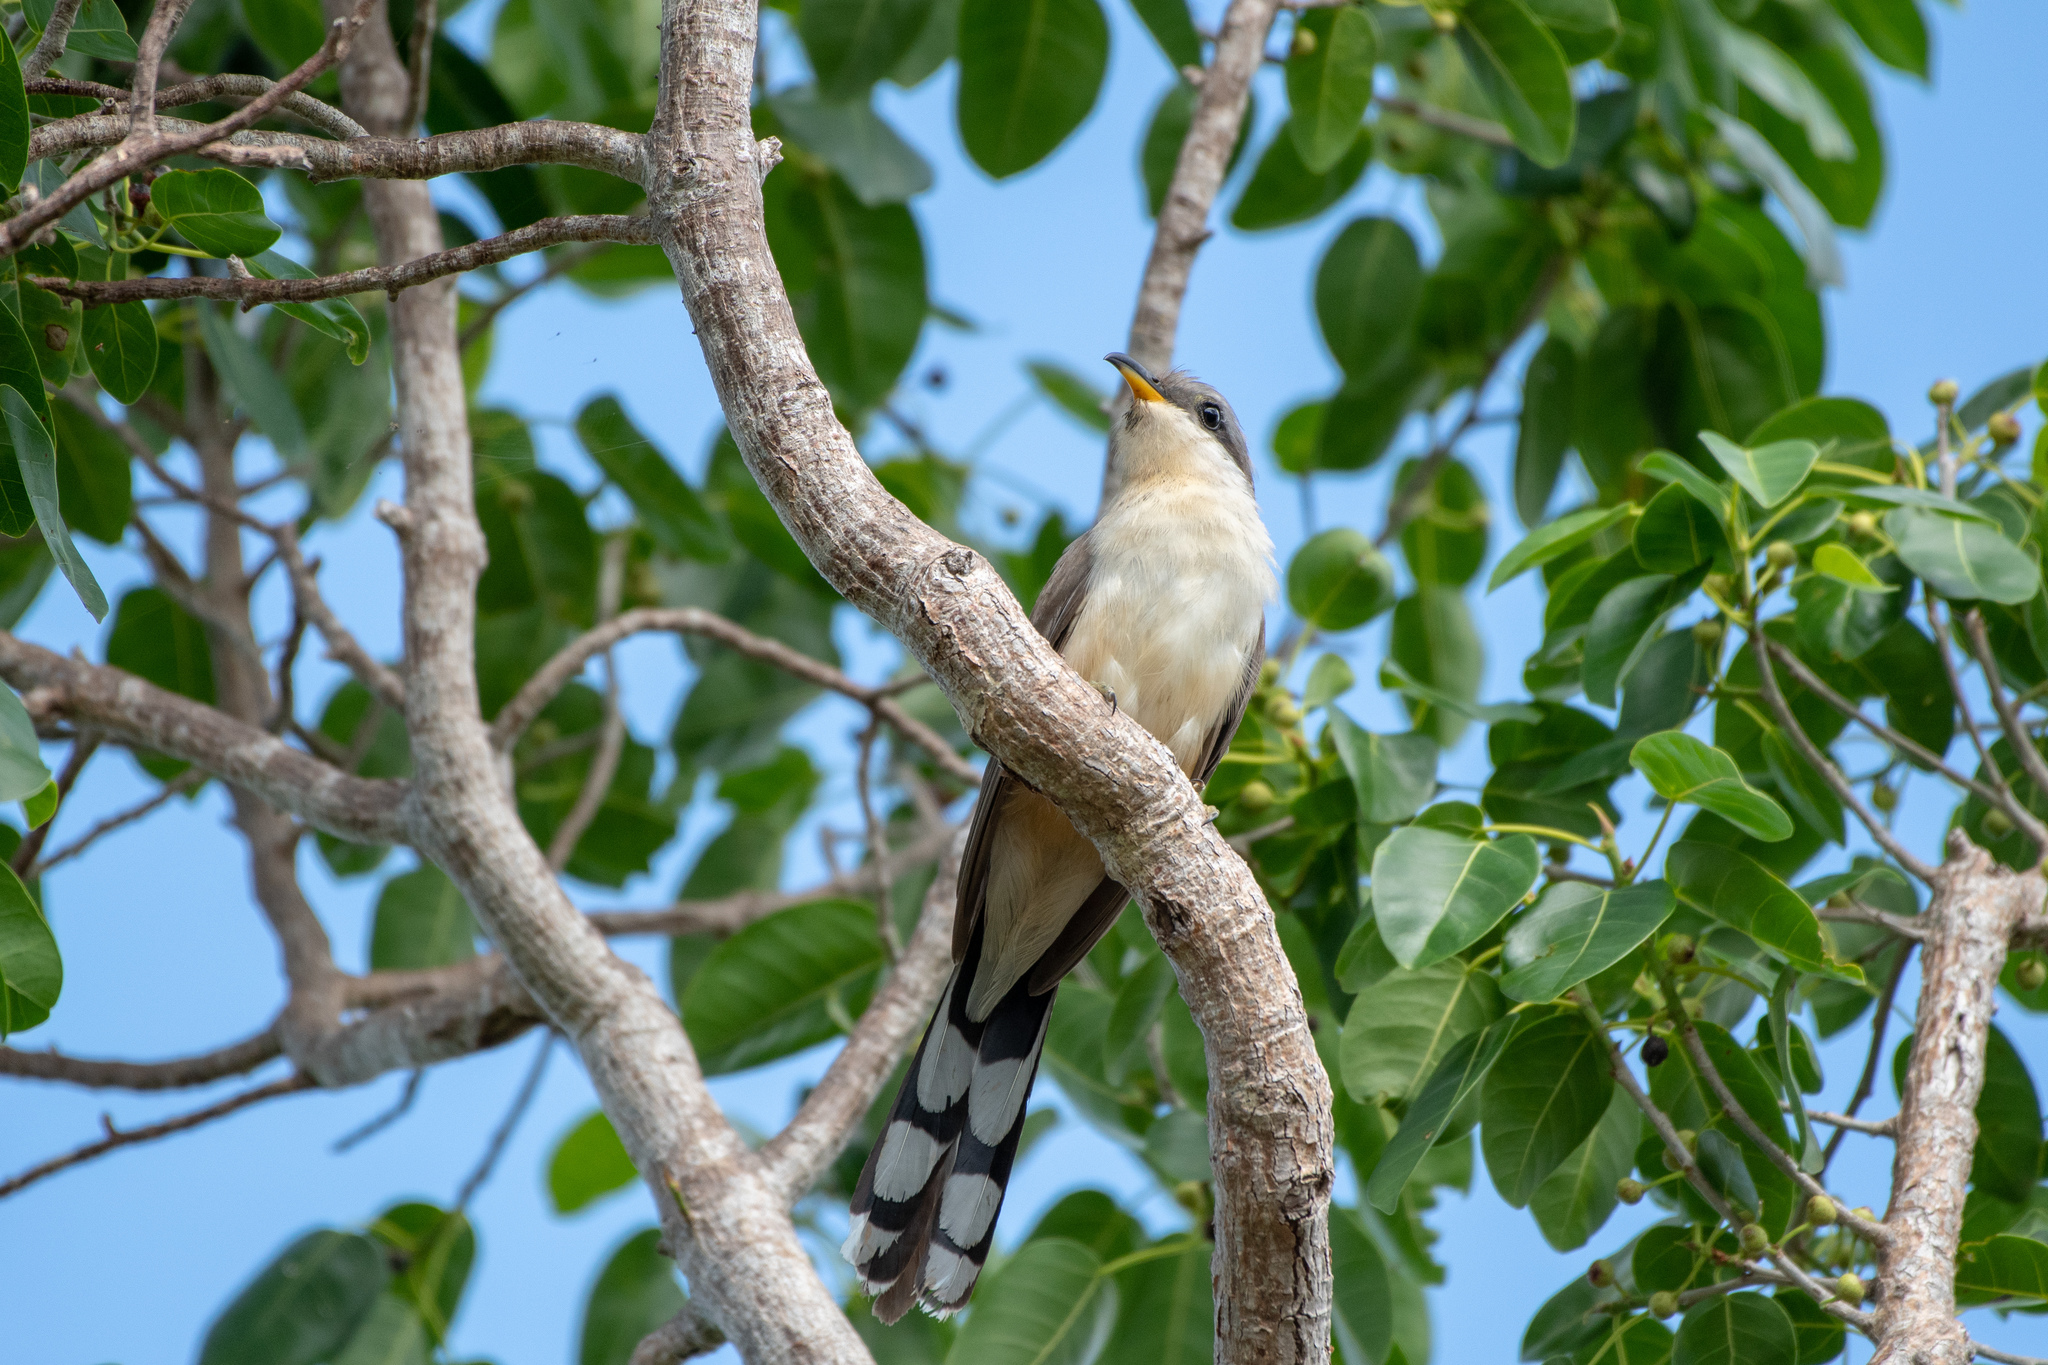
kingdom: Animalia
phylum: Chordata
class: Aves
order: Cuculiformes
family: Cuculidae
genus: Coccyzus
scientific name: Coccyzus minor
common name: Mangrove cuckoo
